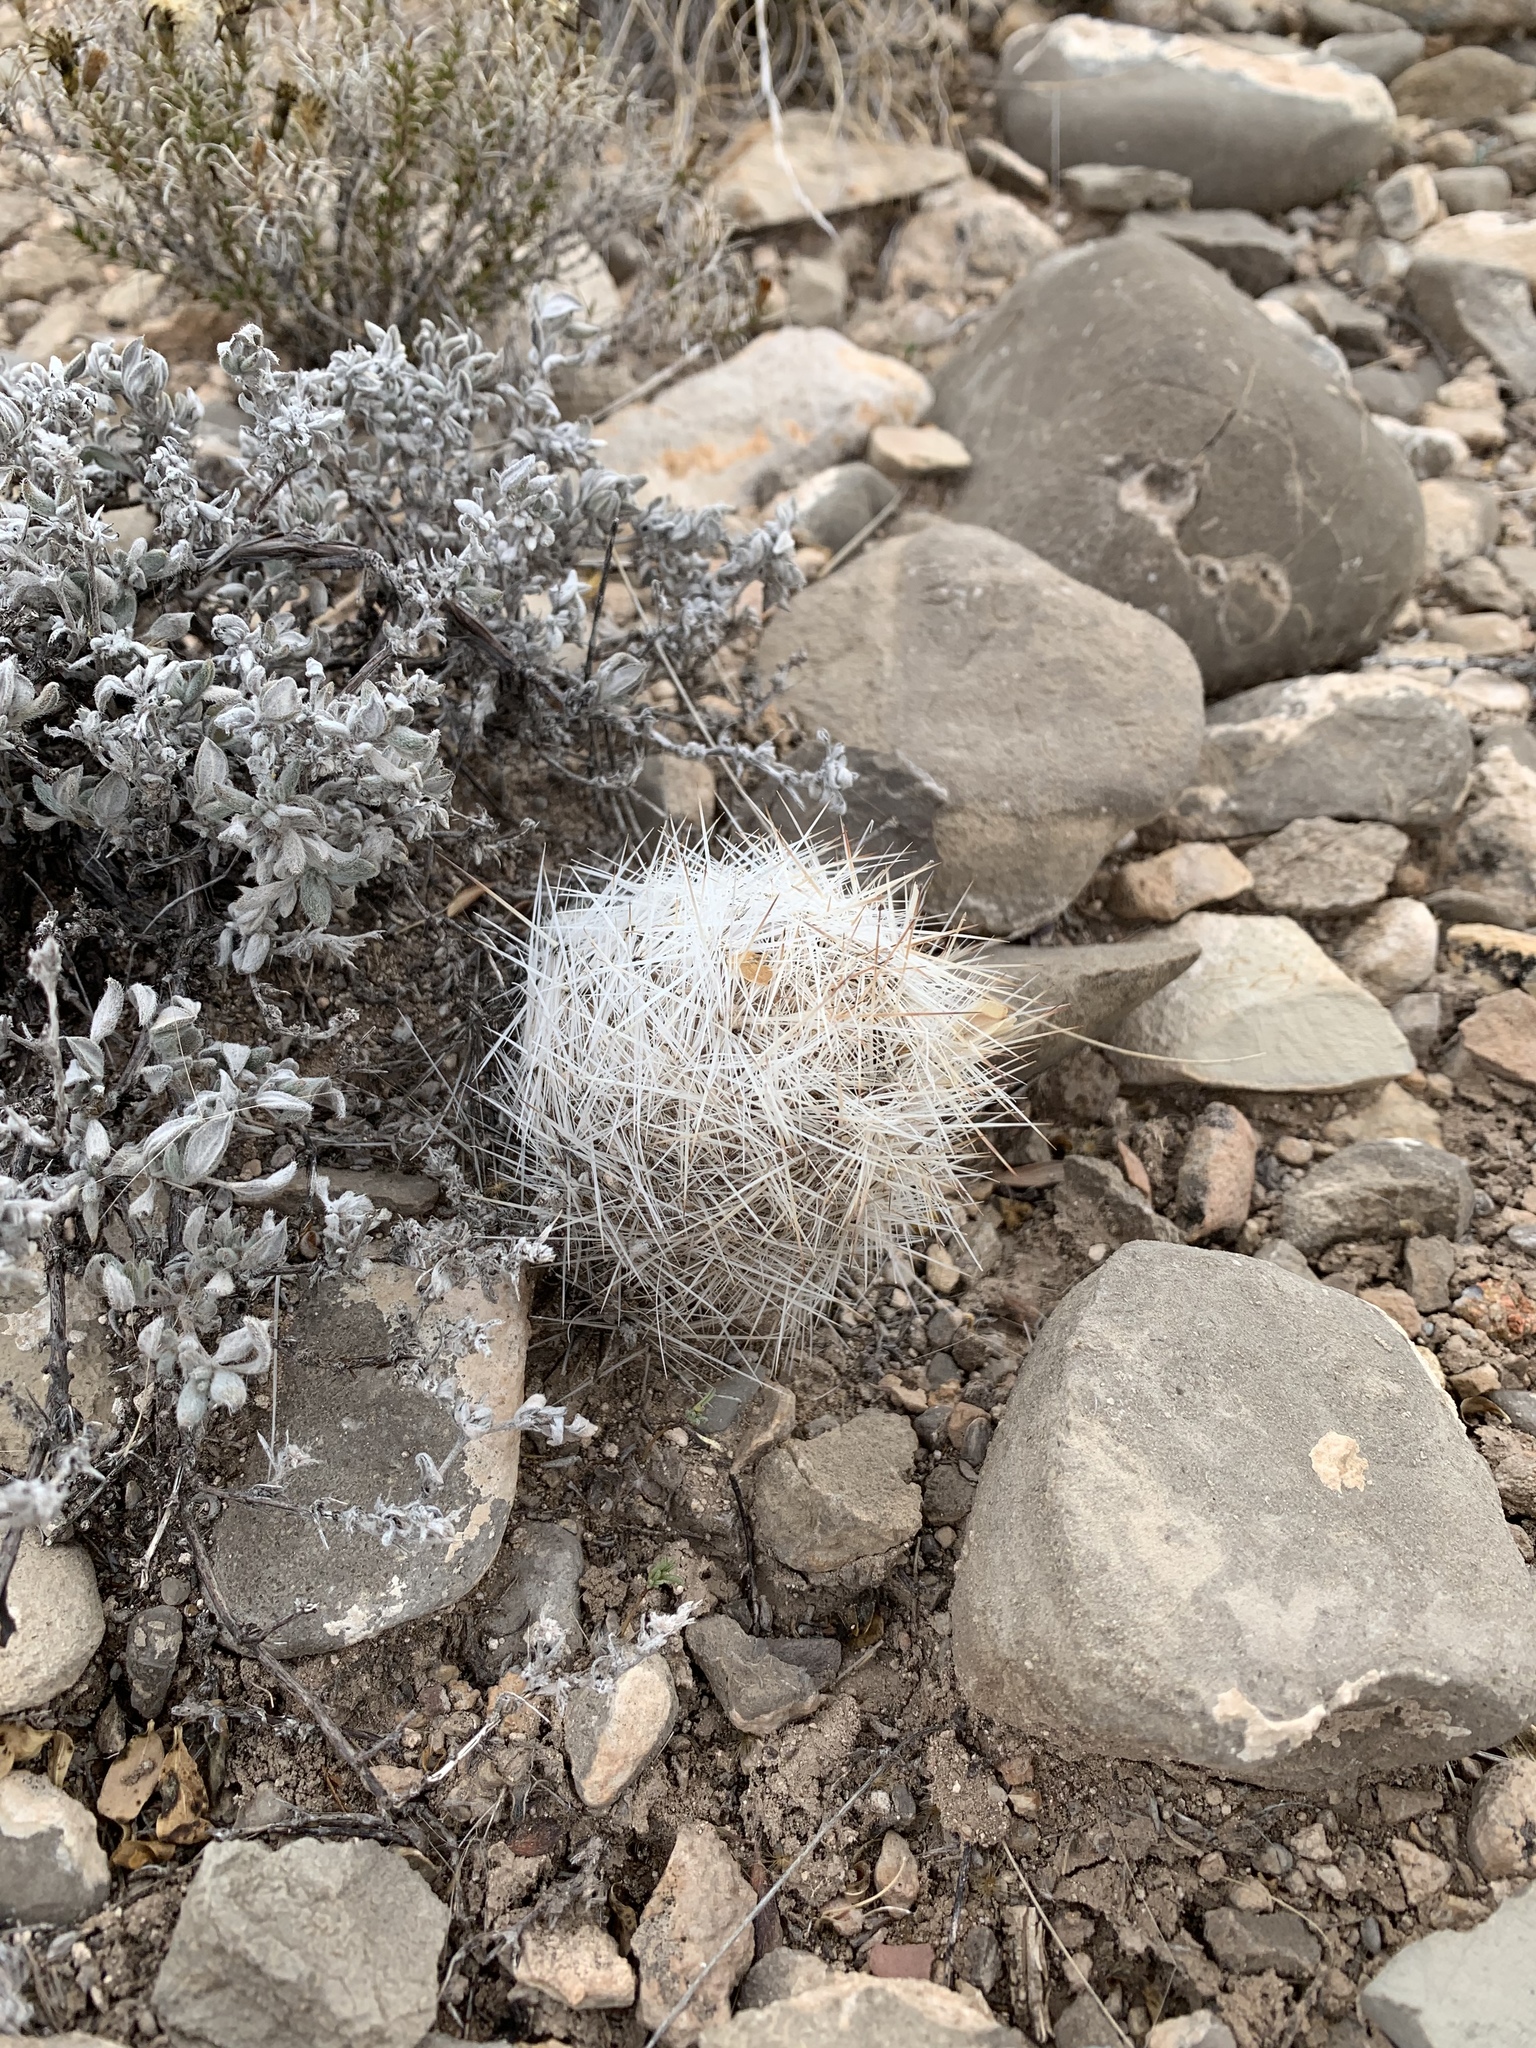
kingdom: Plantae
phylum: Tracheophyta
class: Magnoliopsida
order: Caryophyllales
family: Cactaceae
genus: Pelecyphora
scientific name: Pelecyphora tuberculosa
